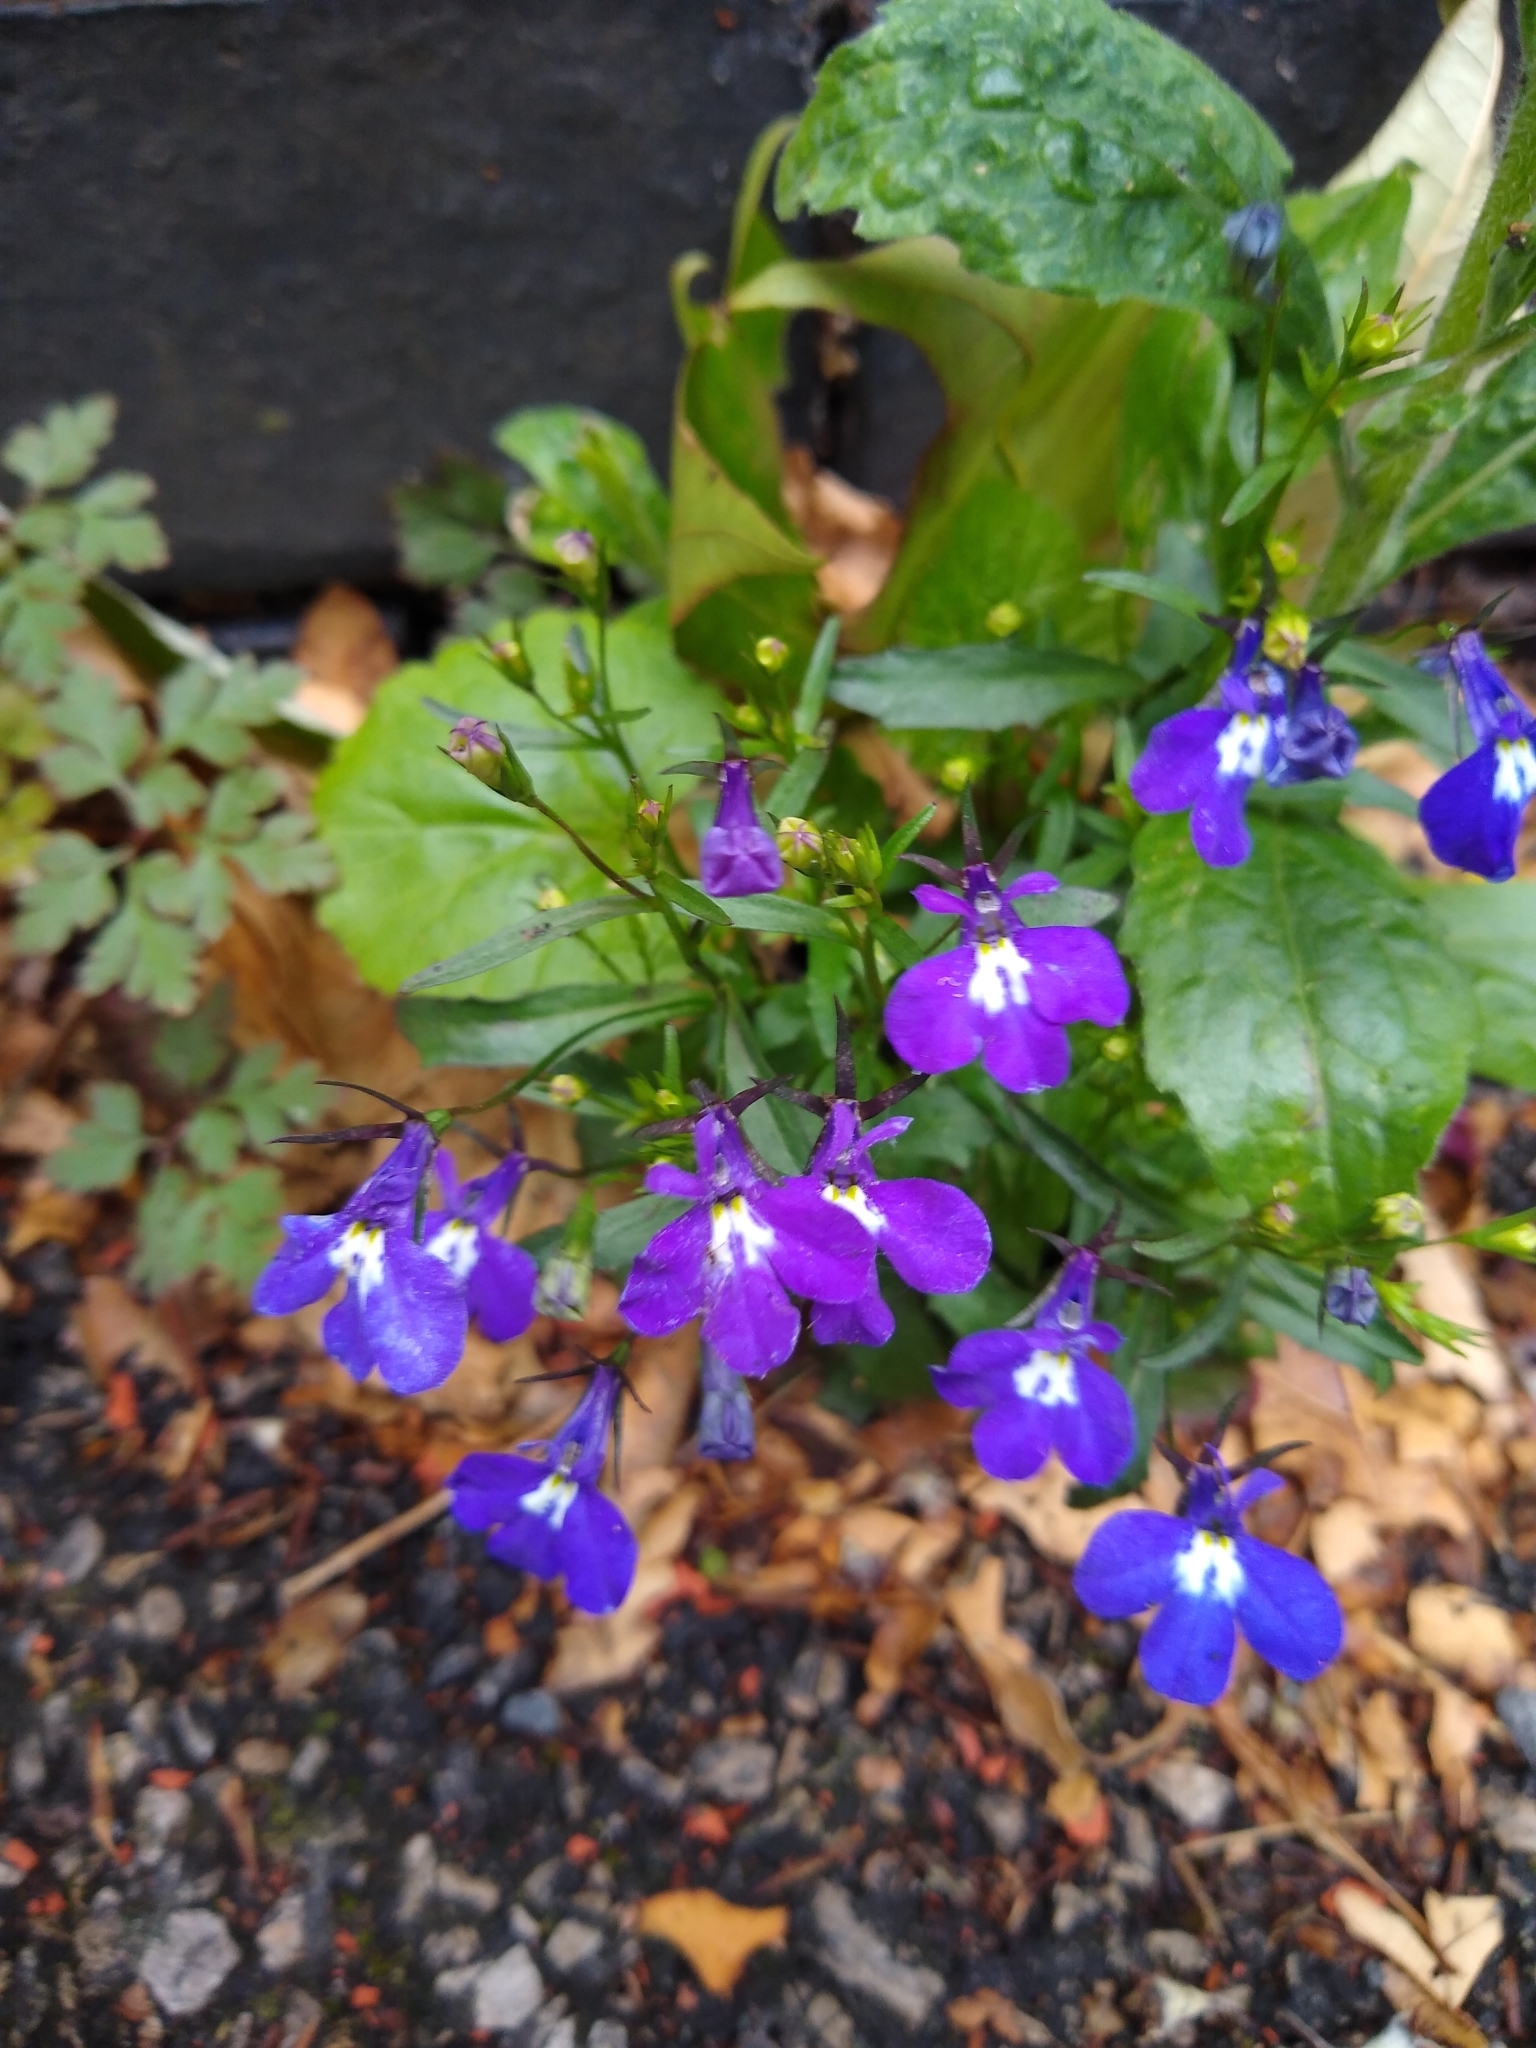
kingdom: Plantae
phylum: Tracheophyta
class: Magnoliopsida
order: Asterales
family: Campanulaceae
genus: Lobelia
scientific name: Lobelia erinus
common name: Edging lobelia
